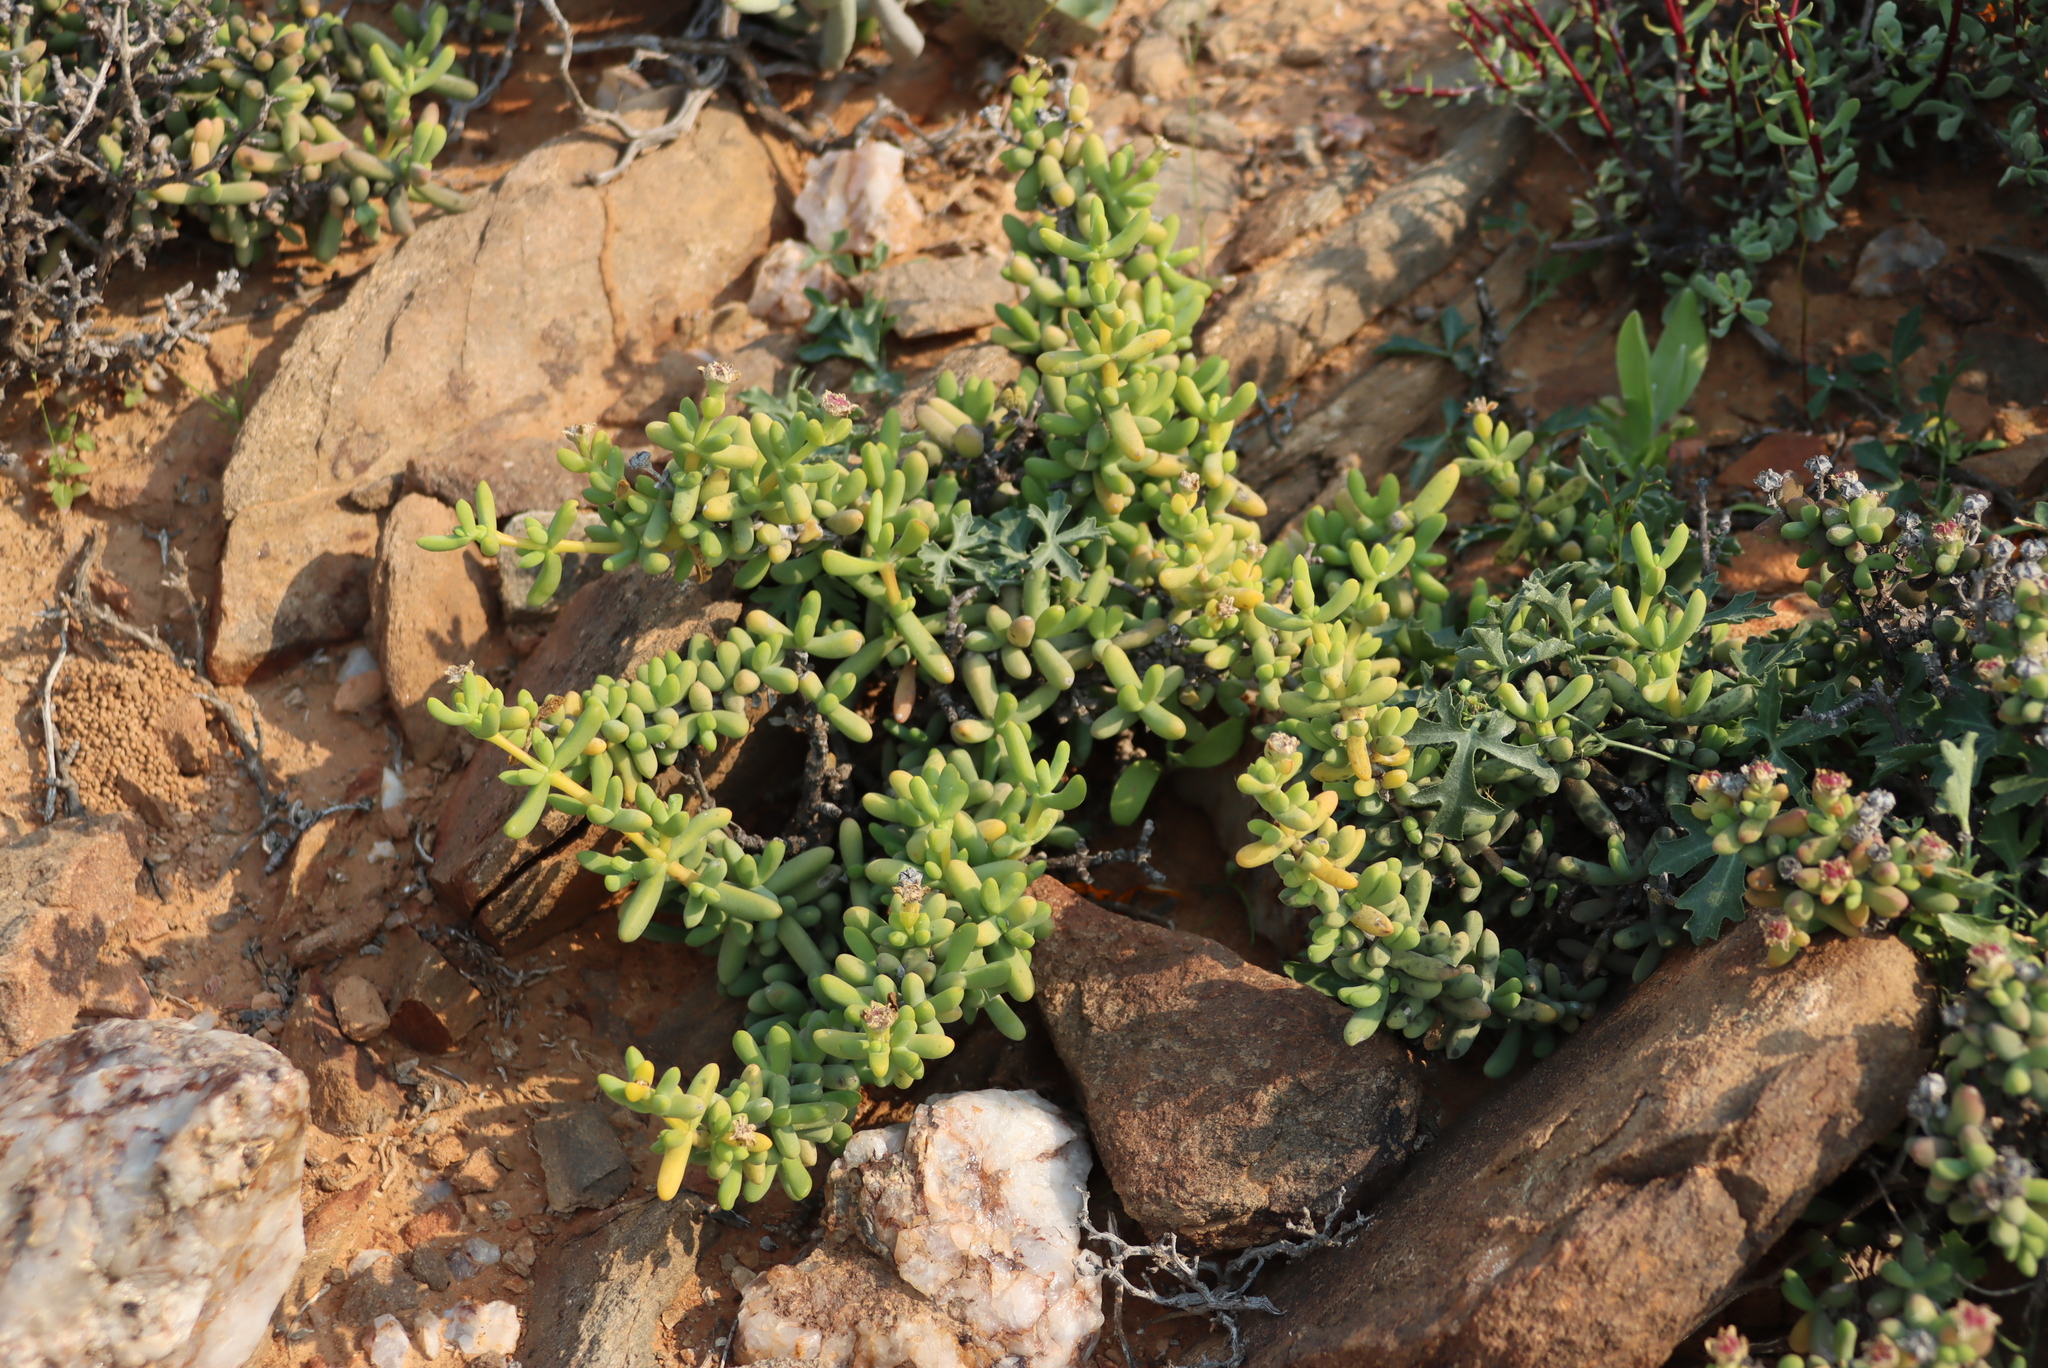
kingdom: Plantae
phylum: Tracheophyta
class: Magnoliopsida
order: Cucurbitales
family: Cucurbitaceae
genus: Kedrostis
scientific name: Kedrostis capensis
